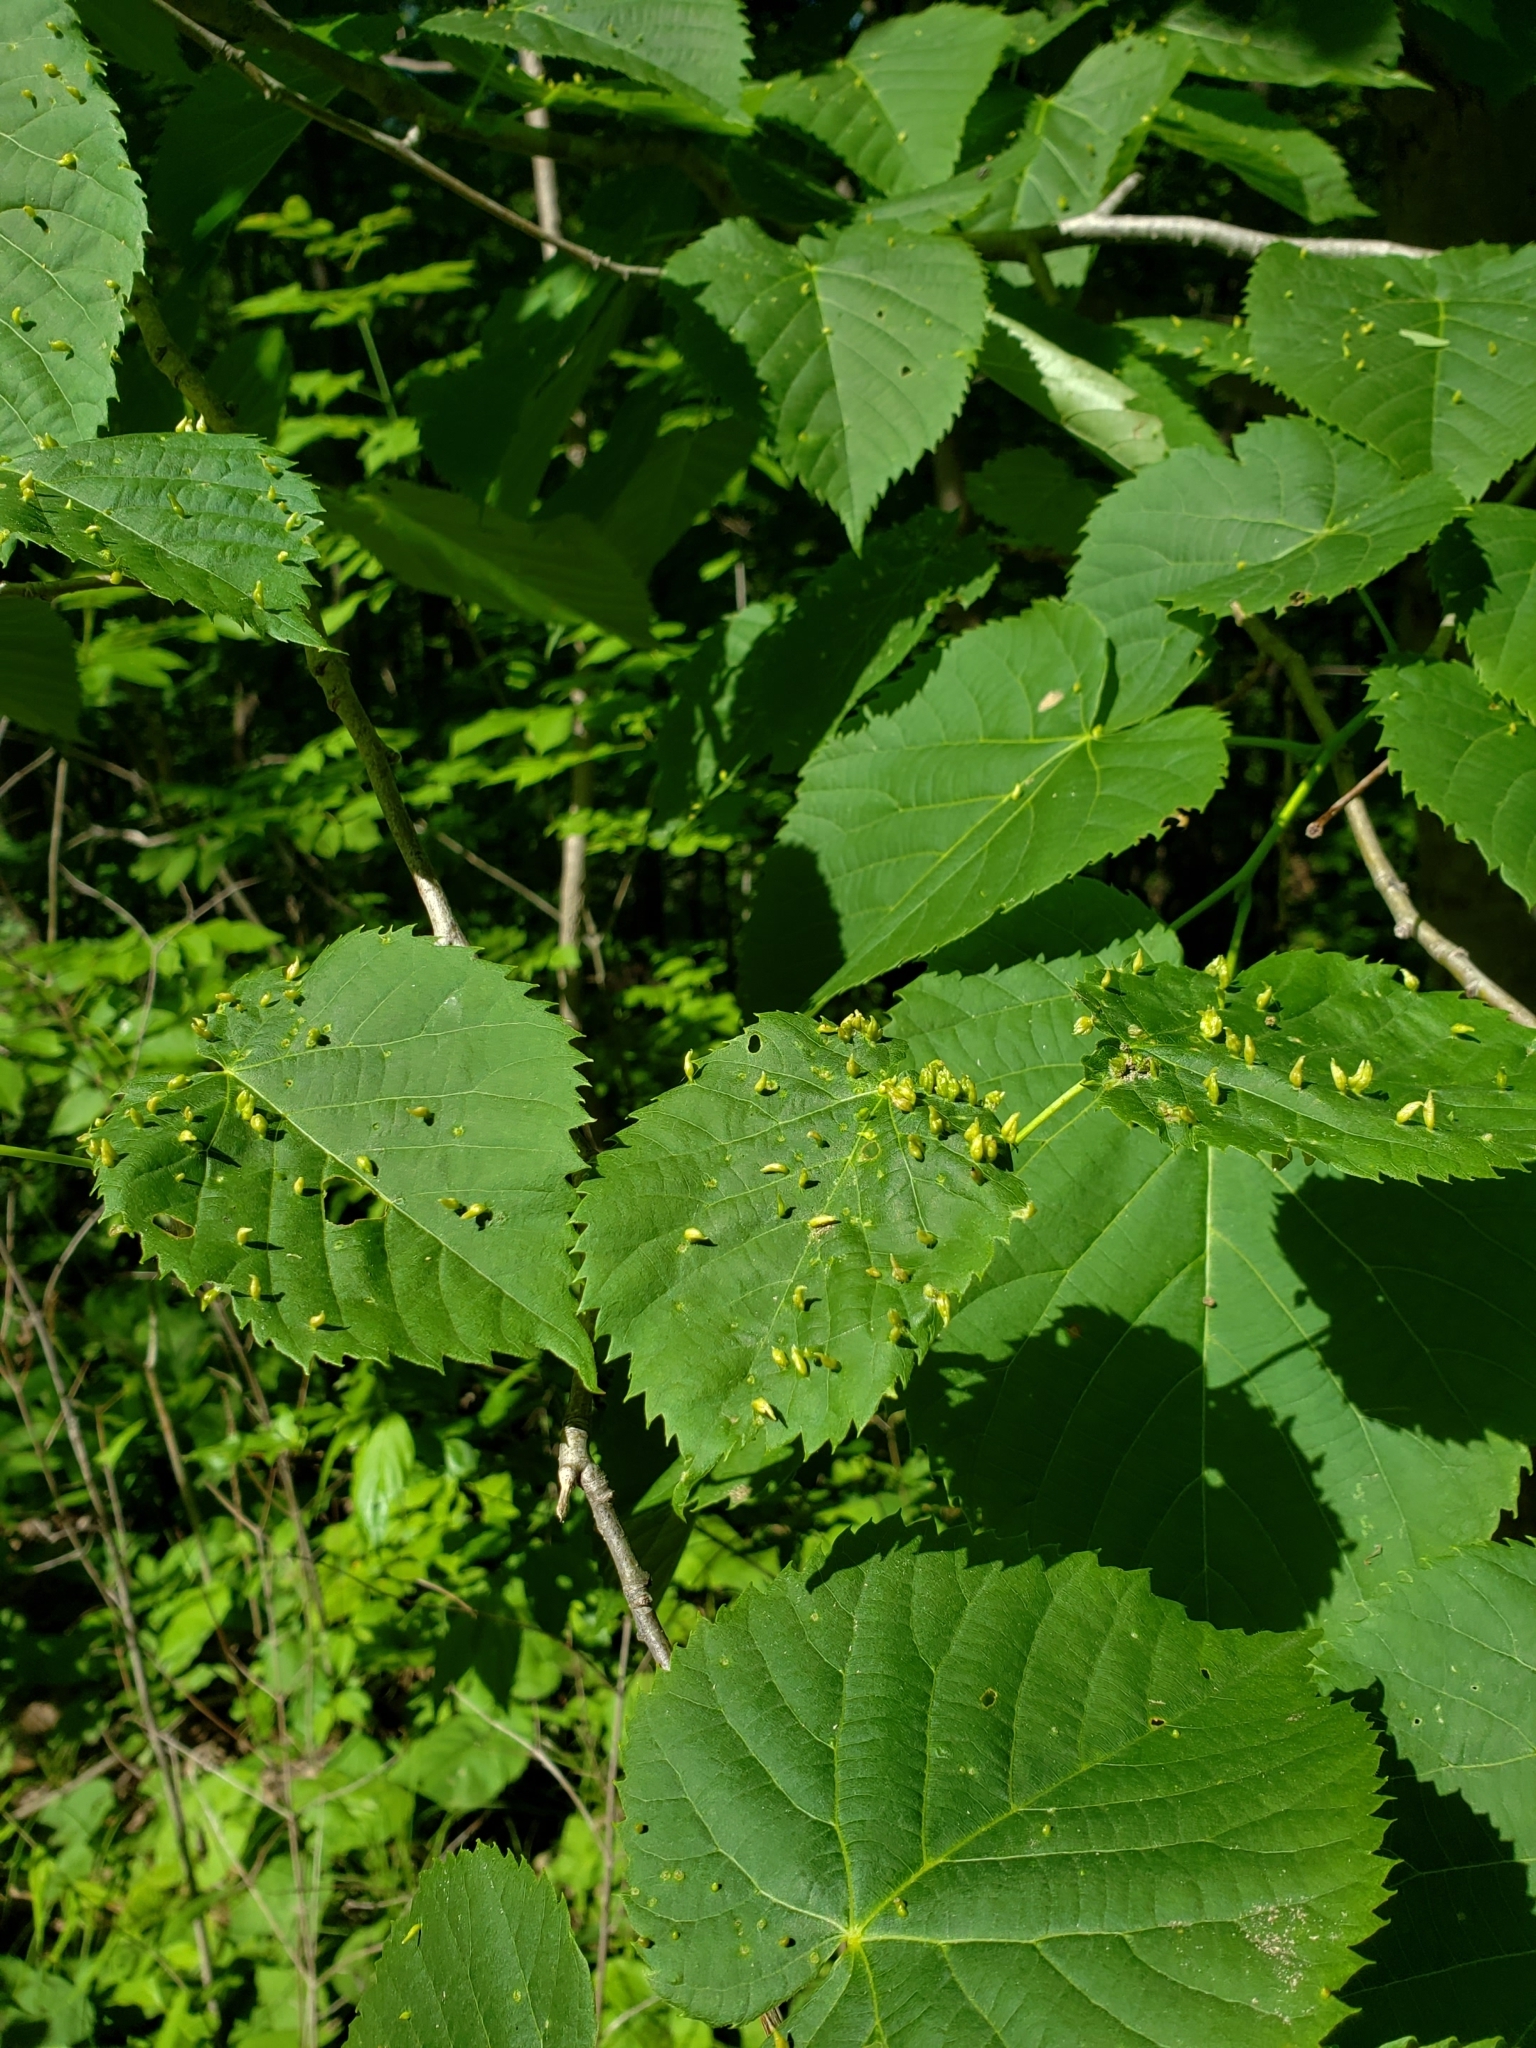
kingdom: Animalia
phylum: Arthropoda
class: Arachnida
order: Trombidiformes
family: Eriophyidae
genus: Eriophyes
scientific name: Eriophyes tiliae
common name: Red nail gall mite
